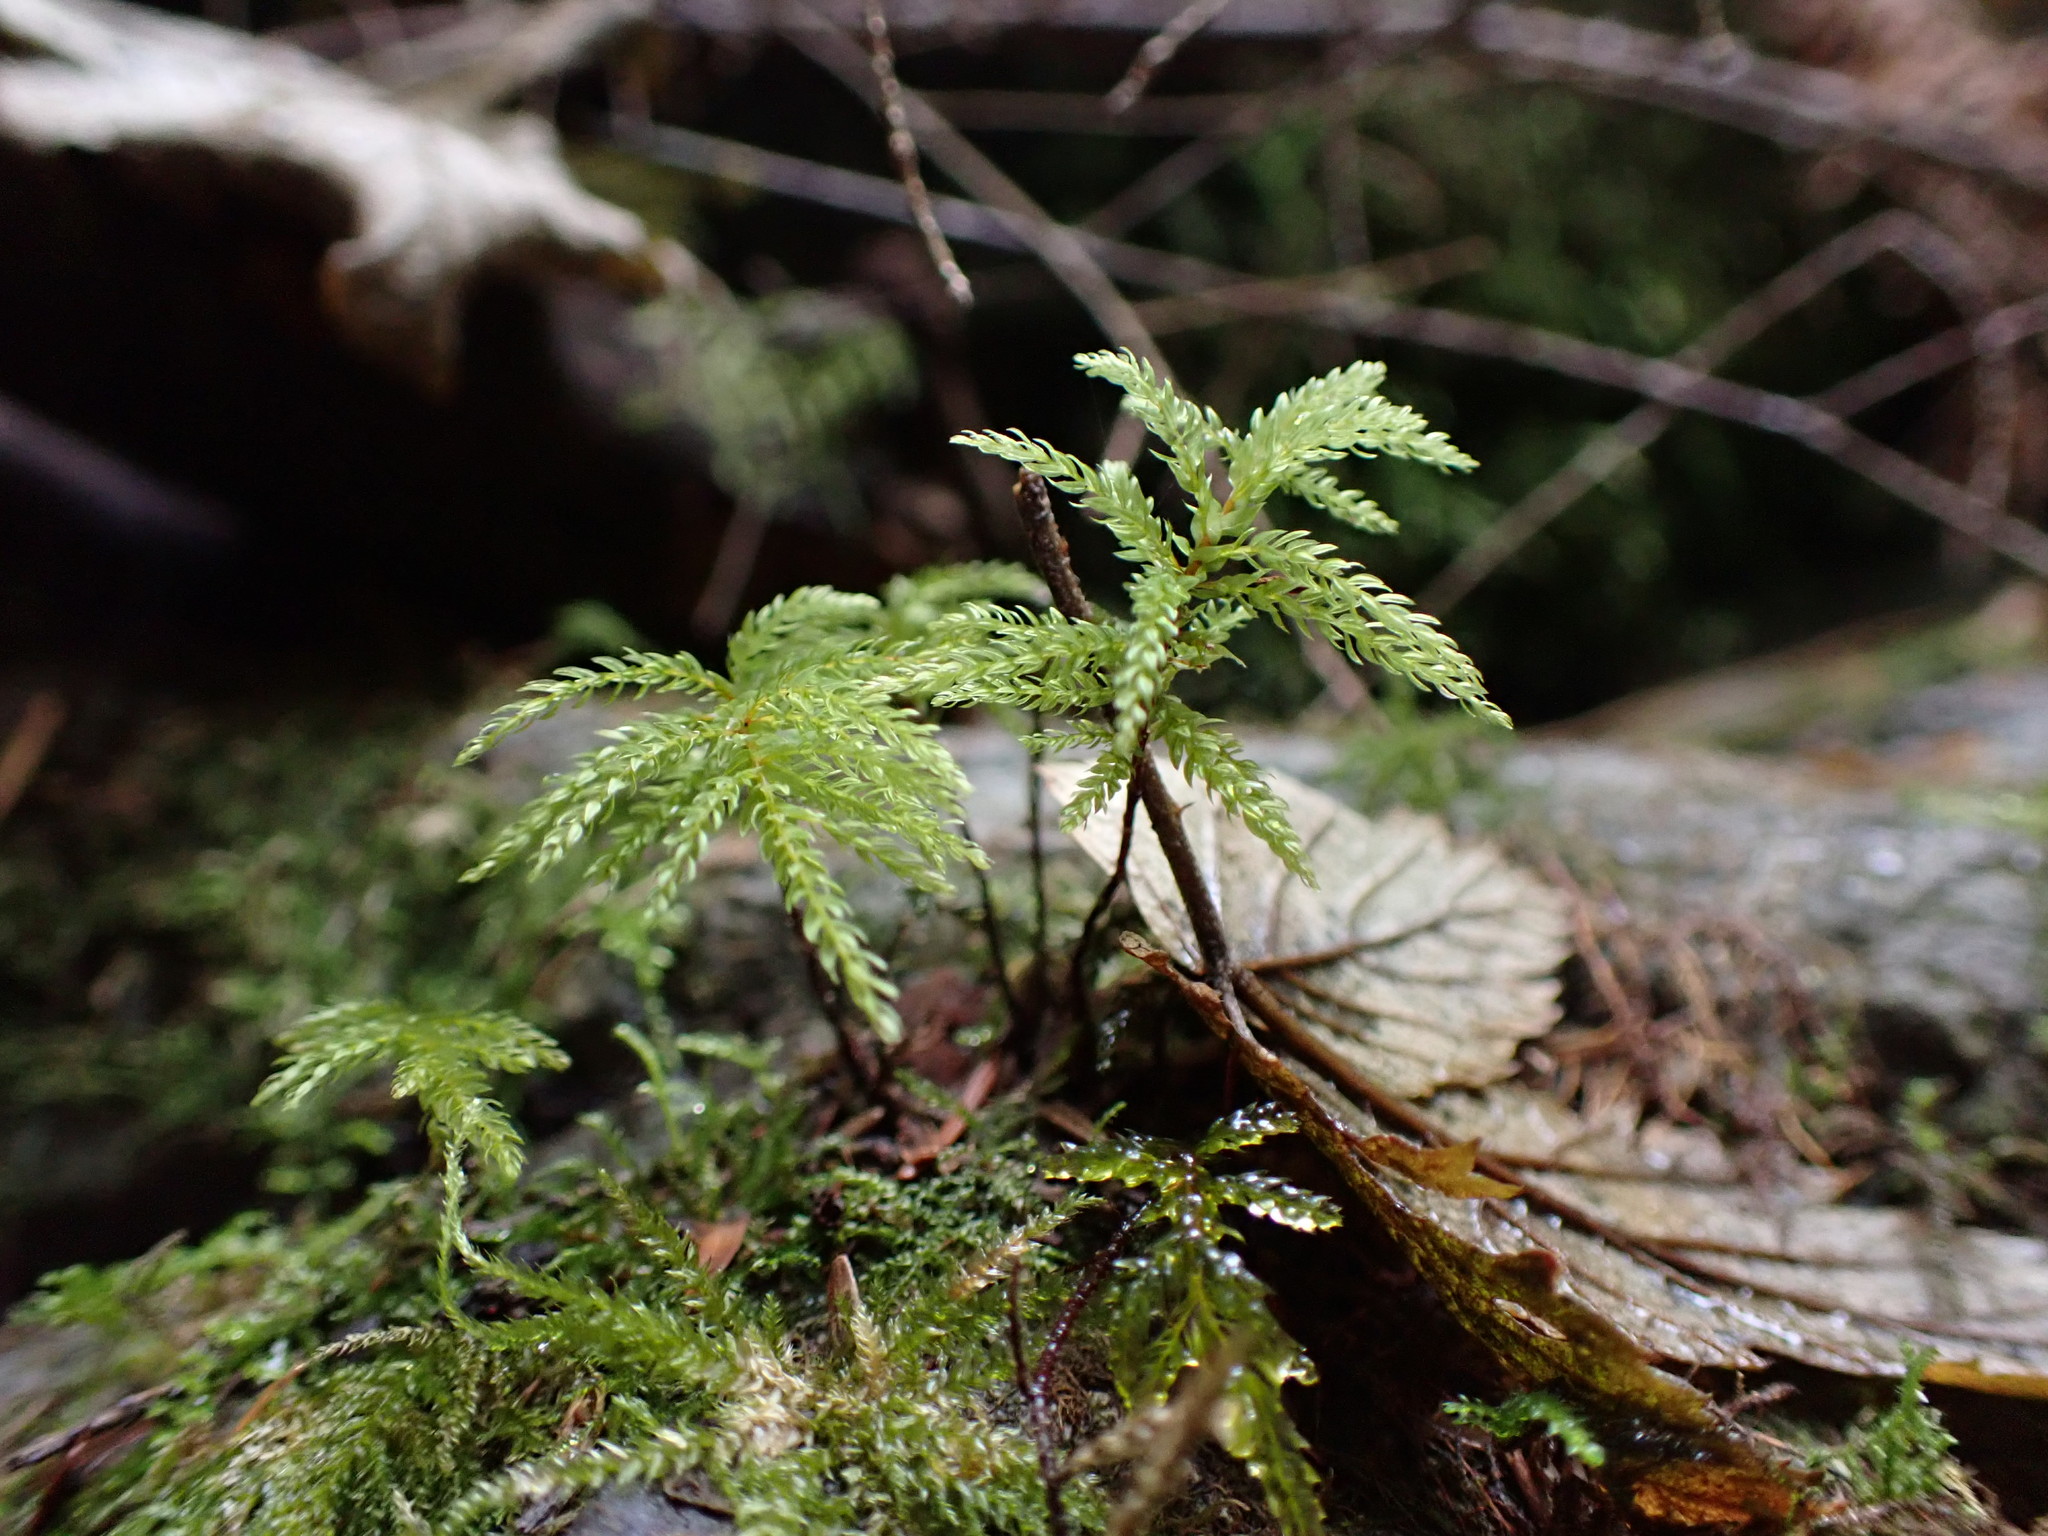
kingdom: Plantae
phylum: Bryophyta
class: Bryopsida
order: Bryales
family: Mniaceae
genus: Leucolepis
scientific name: Leucolepis acanthoneura
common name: Leucolepis umbrella moss
